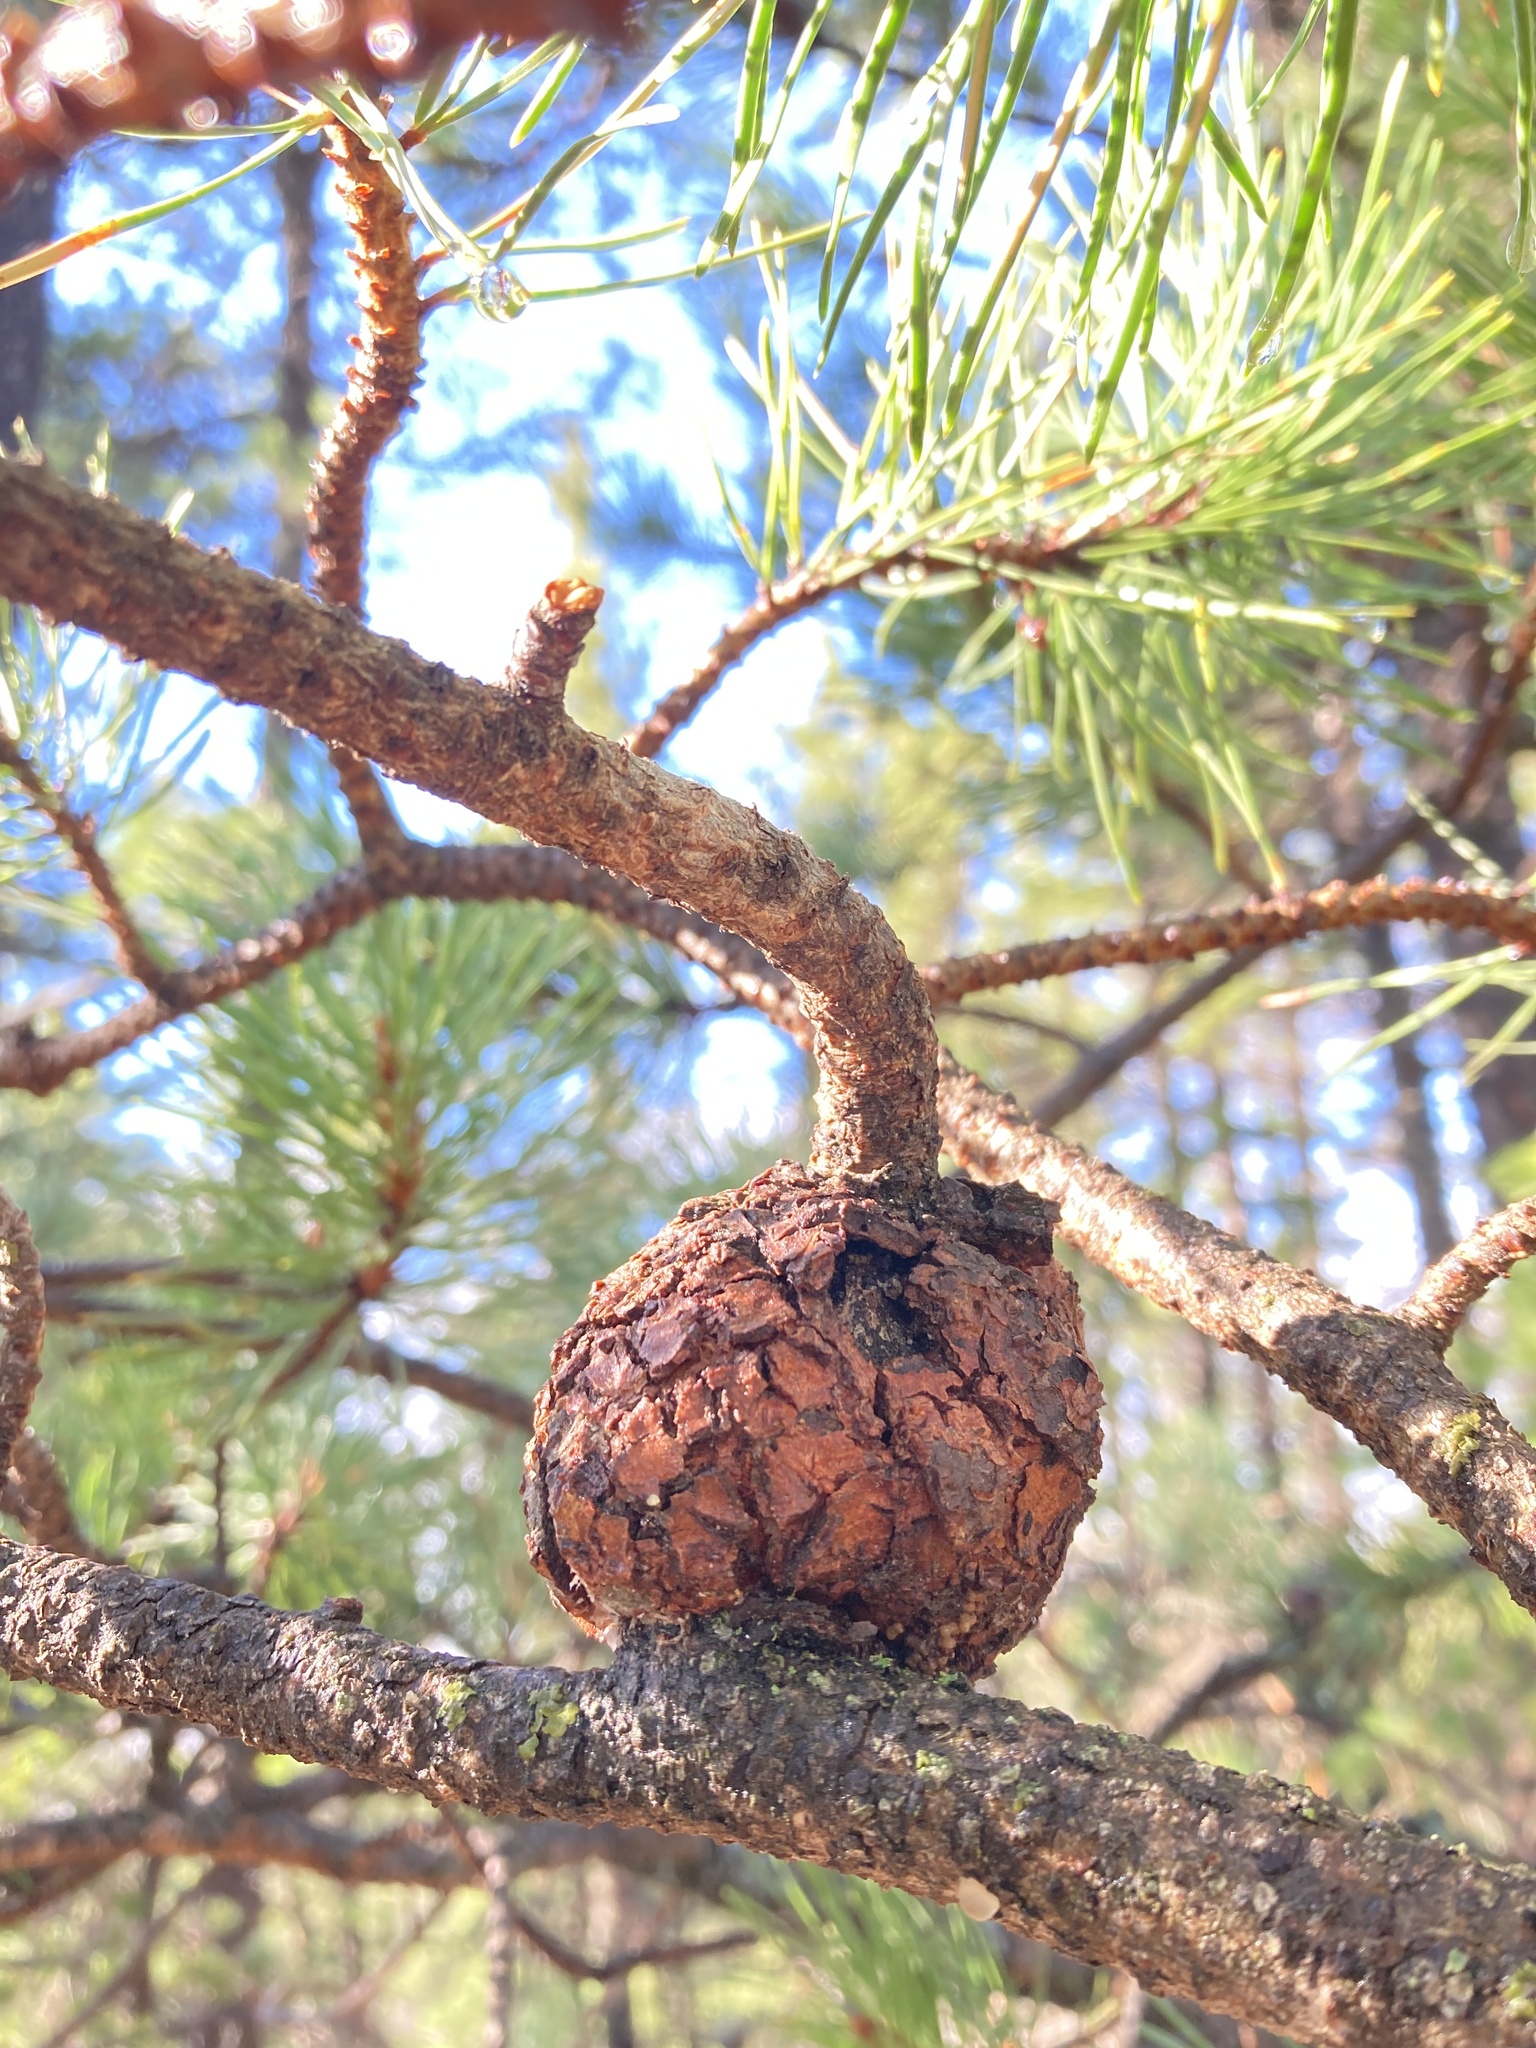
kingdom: Fungi
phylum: Basidiomycota
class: Pucciniomycetes
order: Pucciniales
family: Cronartiaceae
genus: Cronartium
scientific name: Cronartium harknessii
